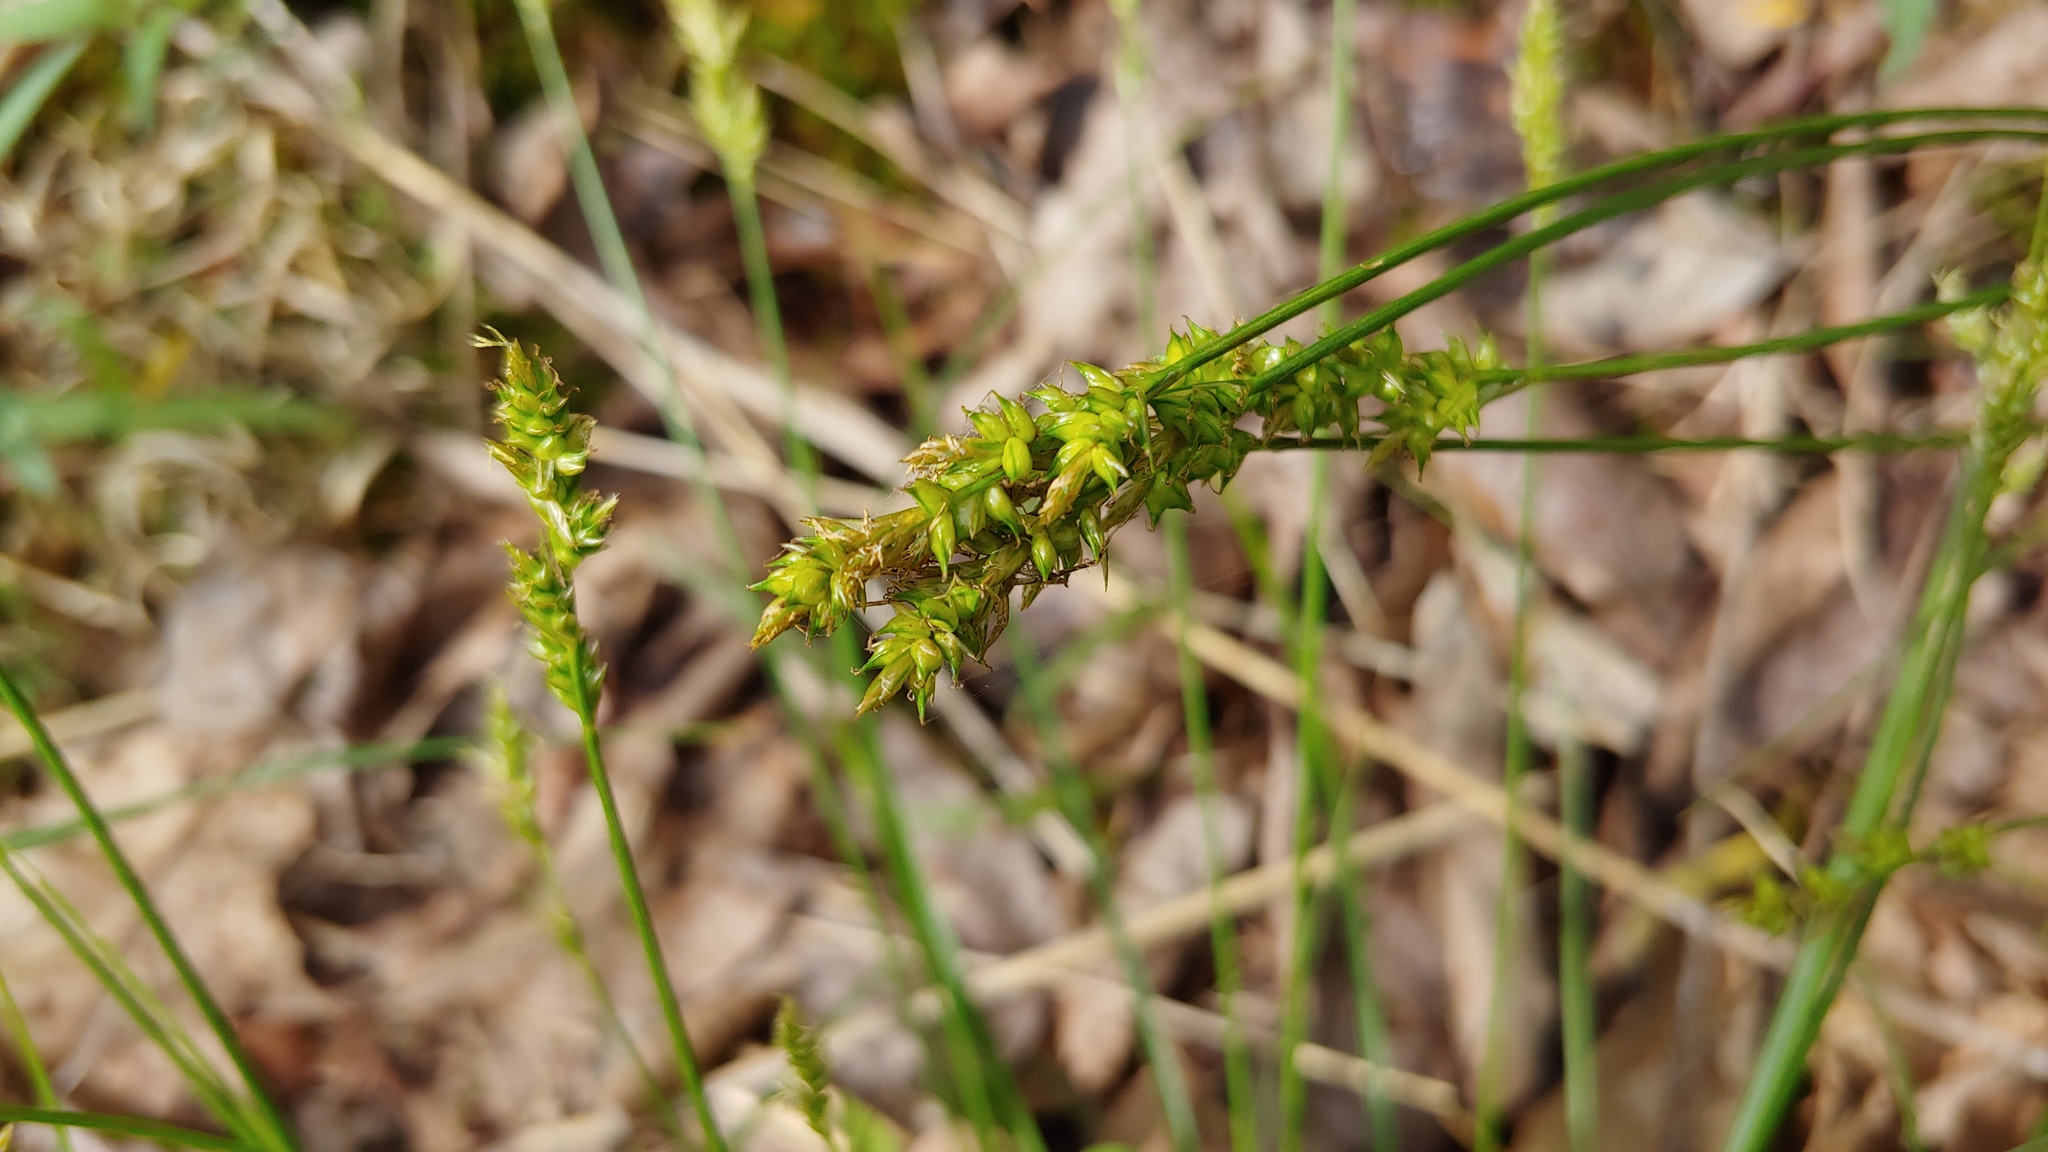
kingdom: Plantae
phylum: Tracheophyta
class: Liliopsida
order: Poales
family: Cyperaceae
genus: Carex
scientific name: Carex retroflexa
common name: Reflexed sedge
